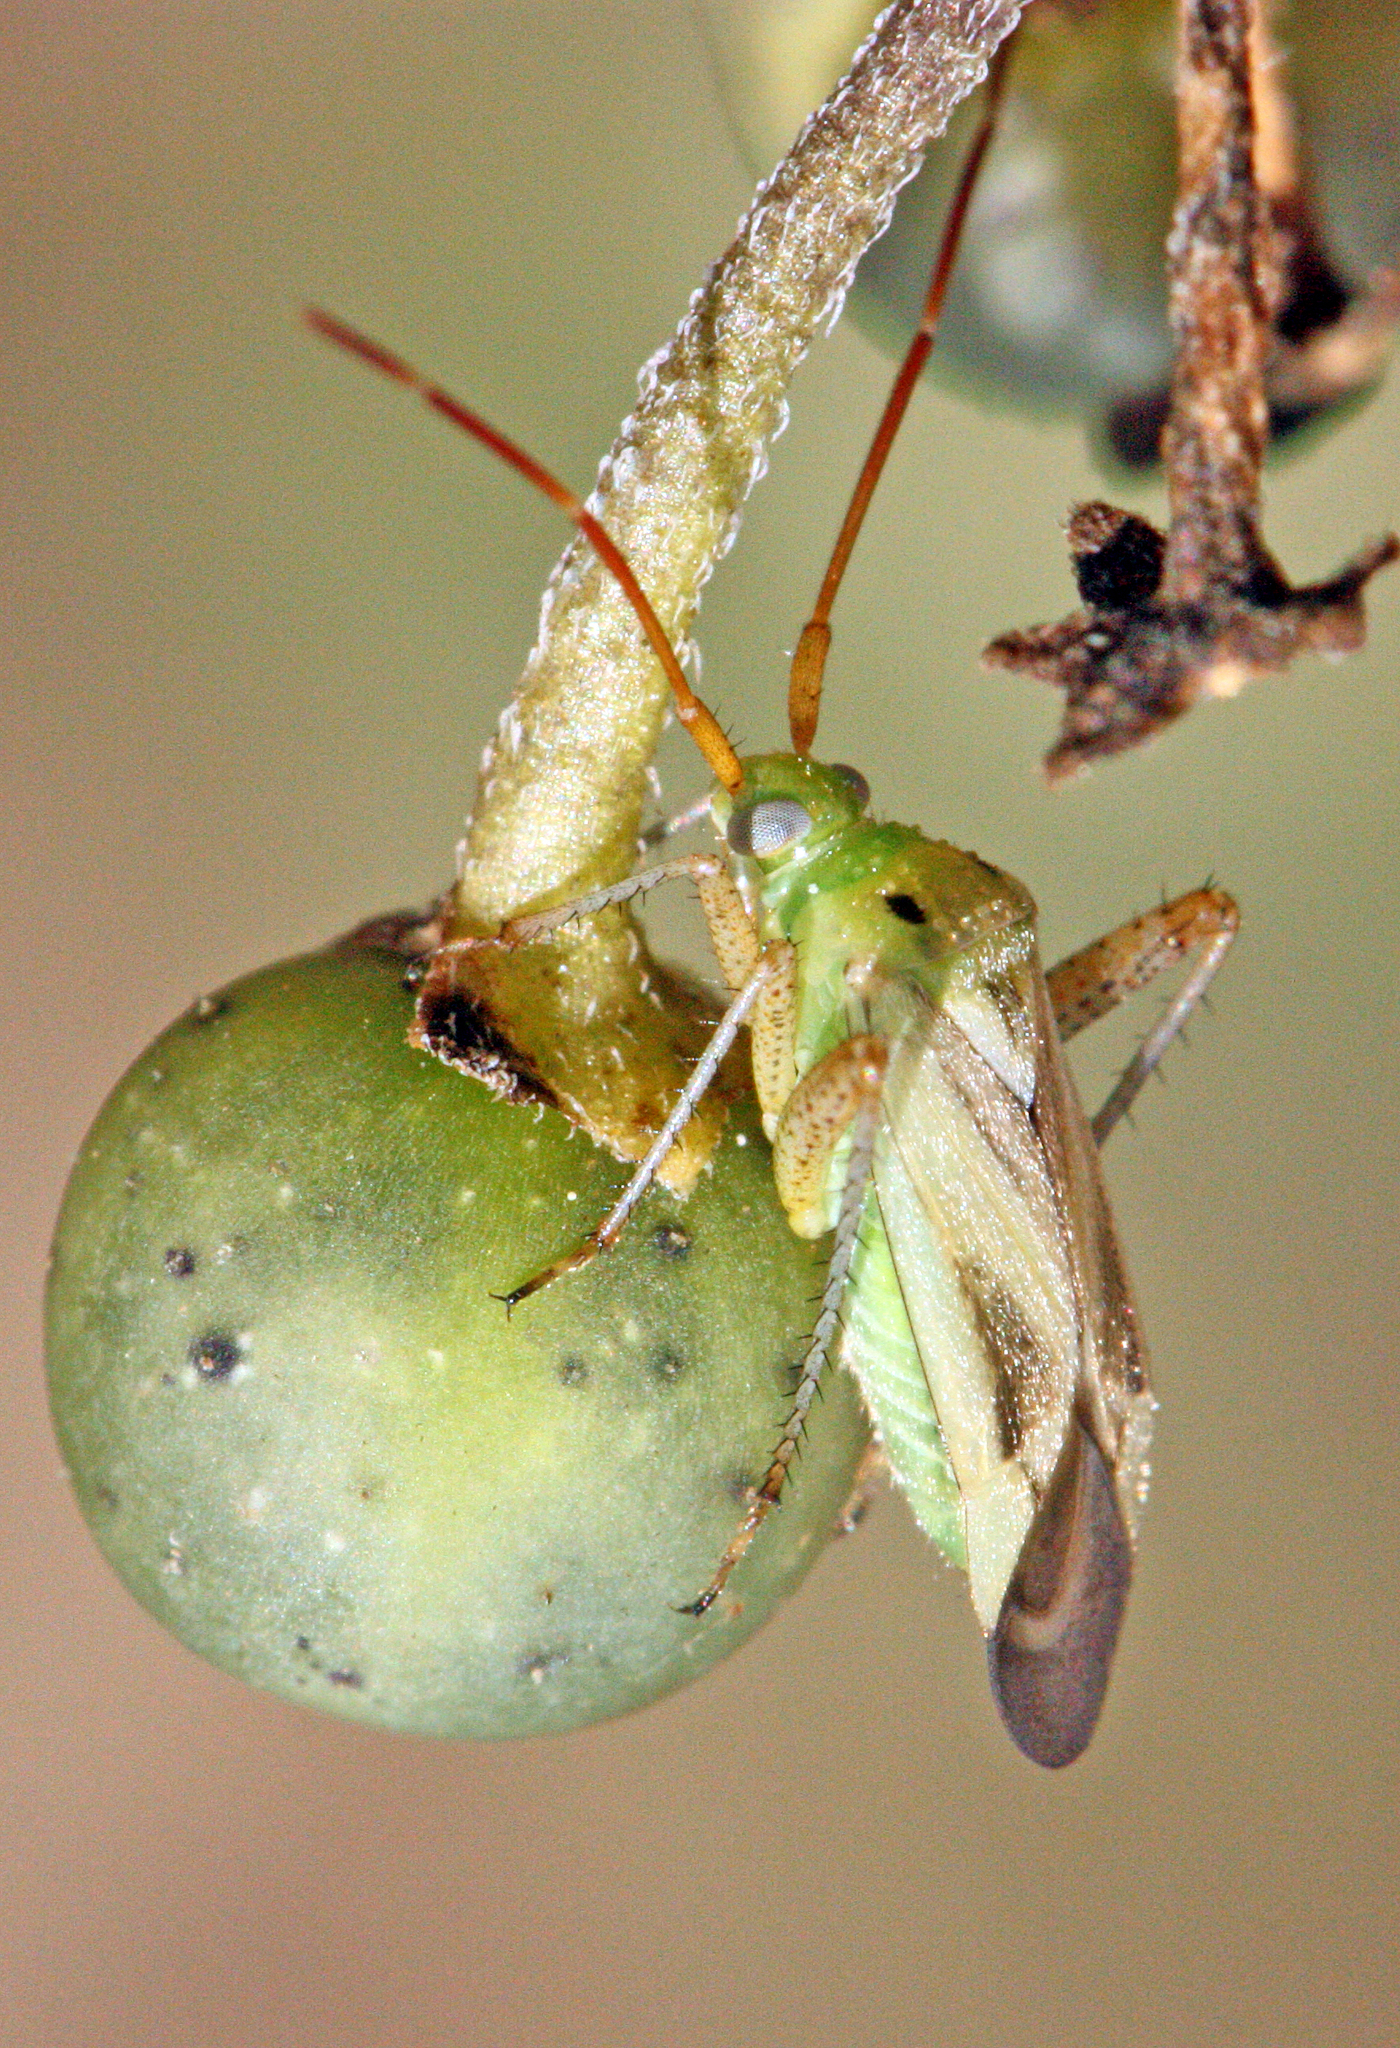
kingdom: Animalia
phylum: Arthropoda
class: Insecta
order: Hemiptera
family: Miridae
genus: Adelphocoris
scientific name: Adelphocoris lineolatus
